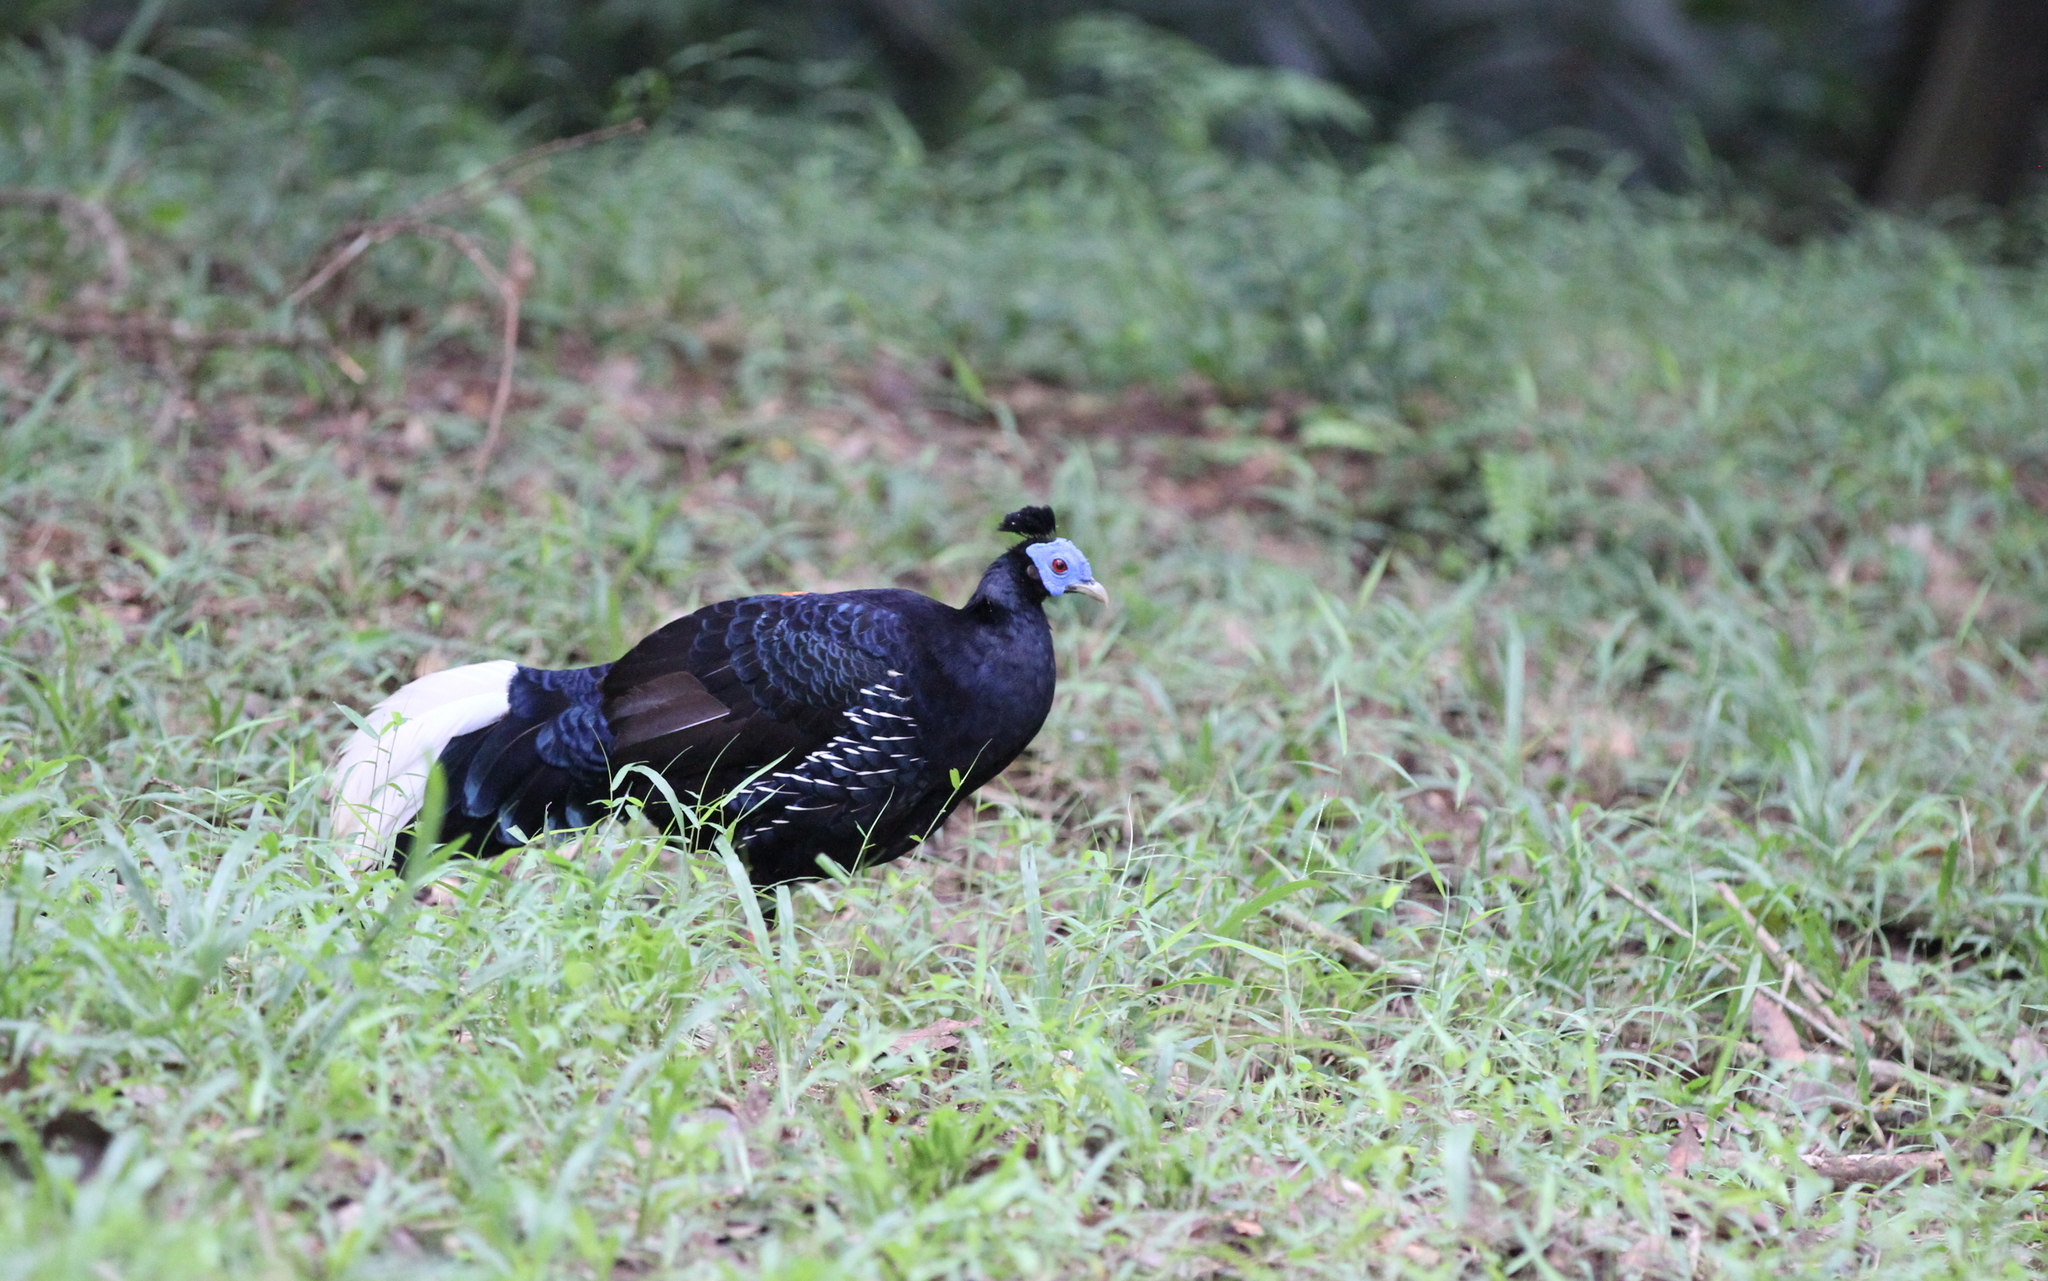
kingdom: Animalia
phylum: Chordata
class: Aves
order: Galliformes
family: Phasianidae
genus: Lophura
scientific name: Lophura ignita
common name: Crested fireback
